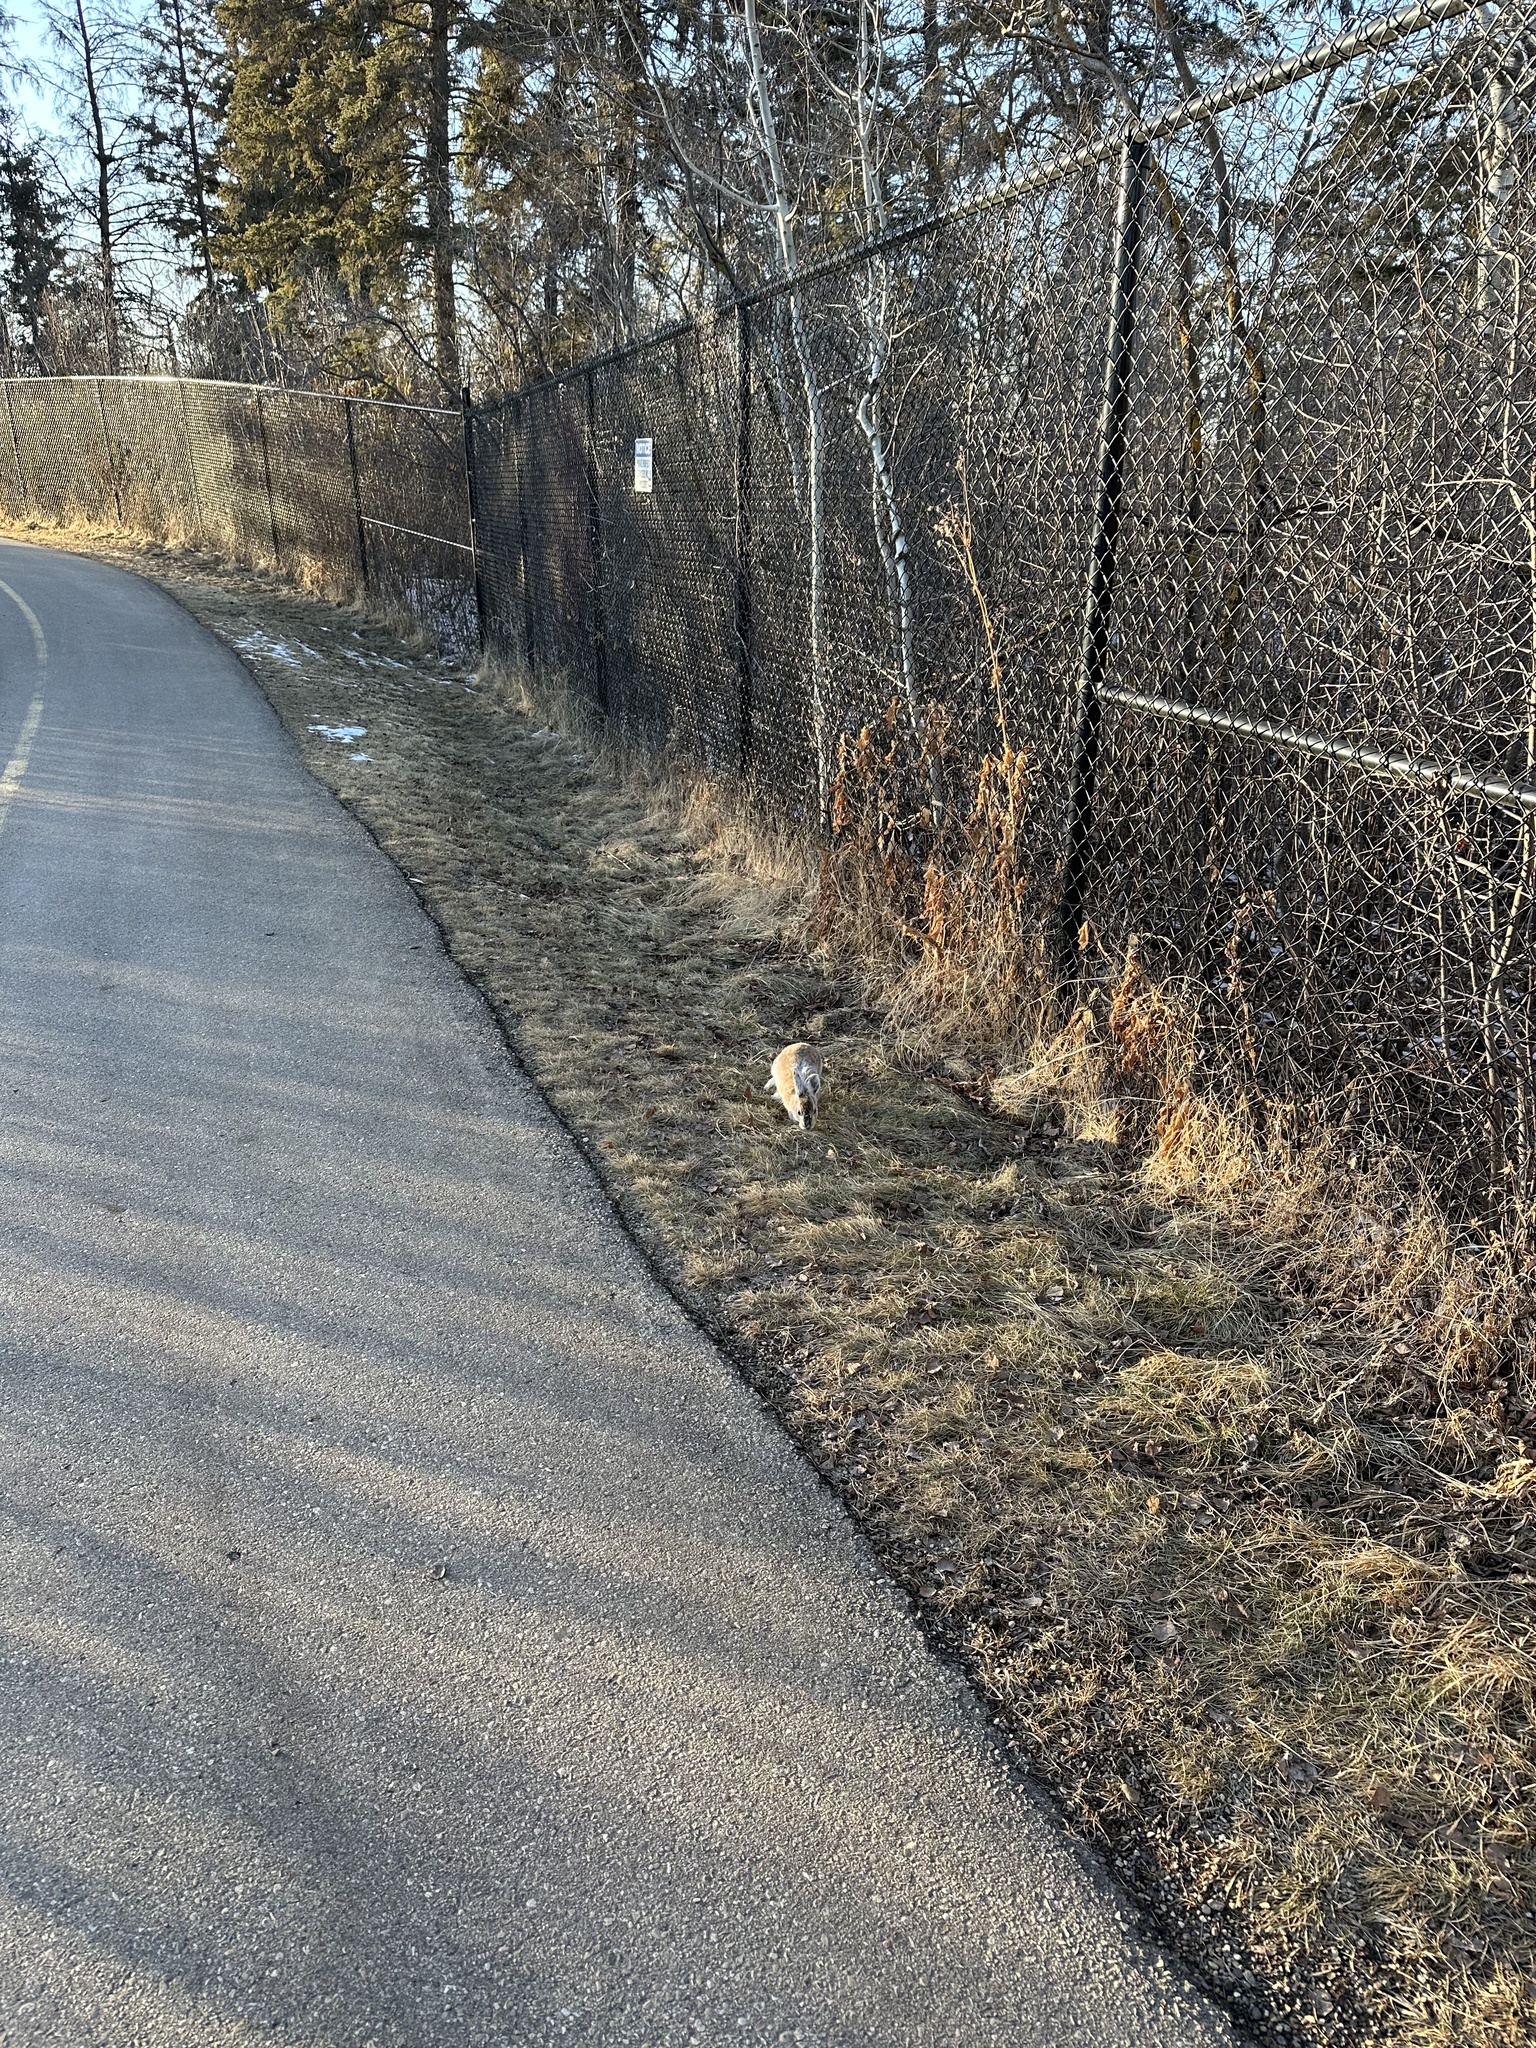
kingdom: Animalia
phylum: Chordata
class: Mammalia
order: Lagomorpha
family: Leporidae
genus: Lepus
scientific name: Lepus americanus
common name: Snowshoe hare
